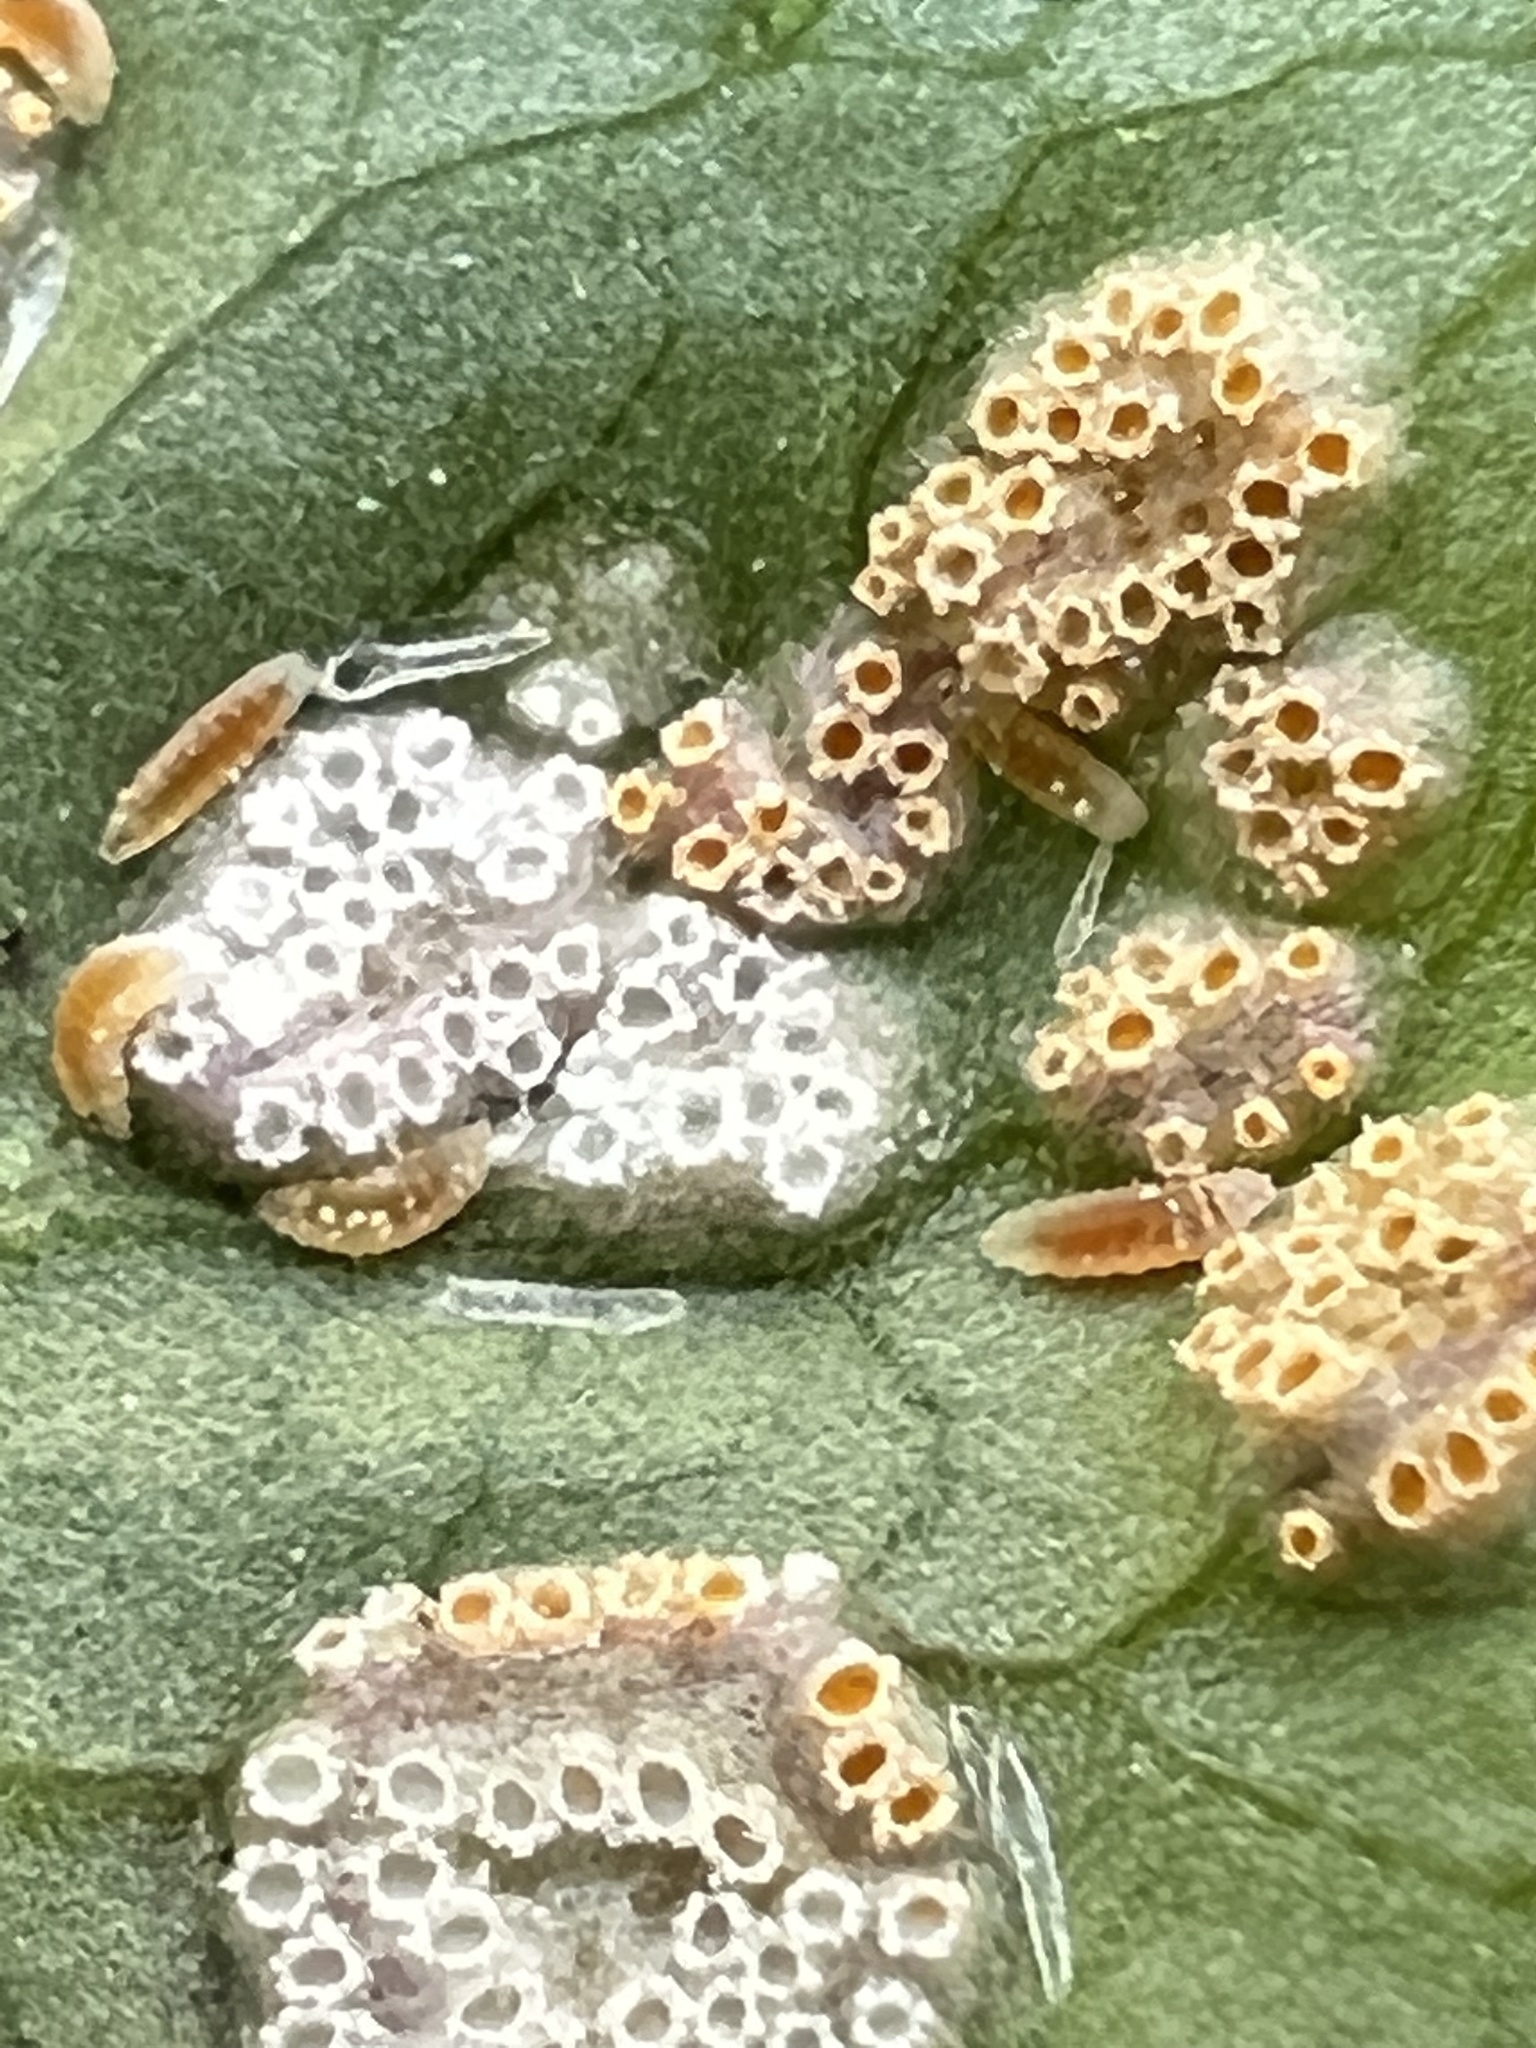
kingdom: Fungi
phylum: Basidiomycota
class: Pucciniomycetes
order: Pucciniales
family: Pucciniaceae
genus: Puccinia
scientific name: Puccinia violae
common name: Violet rust
